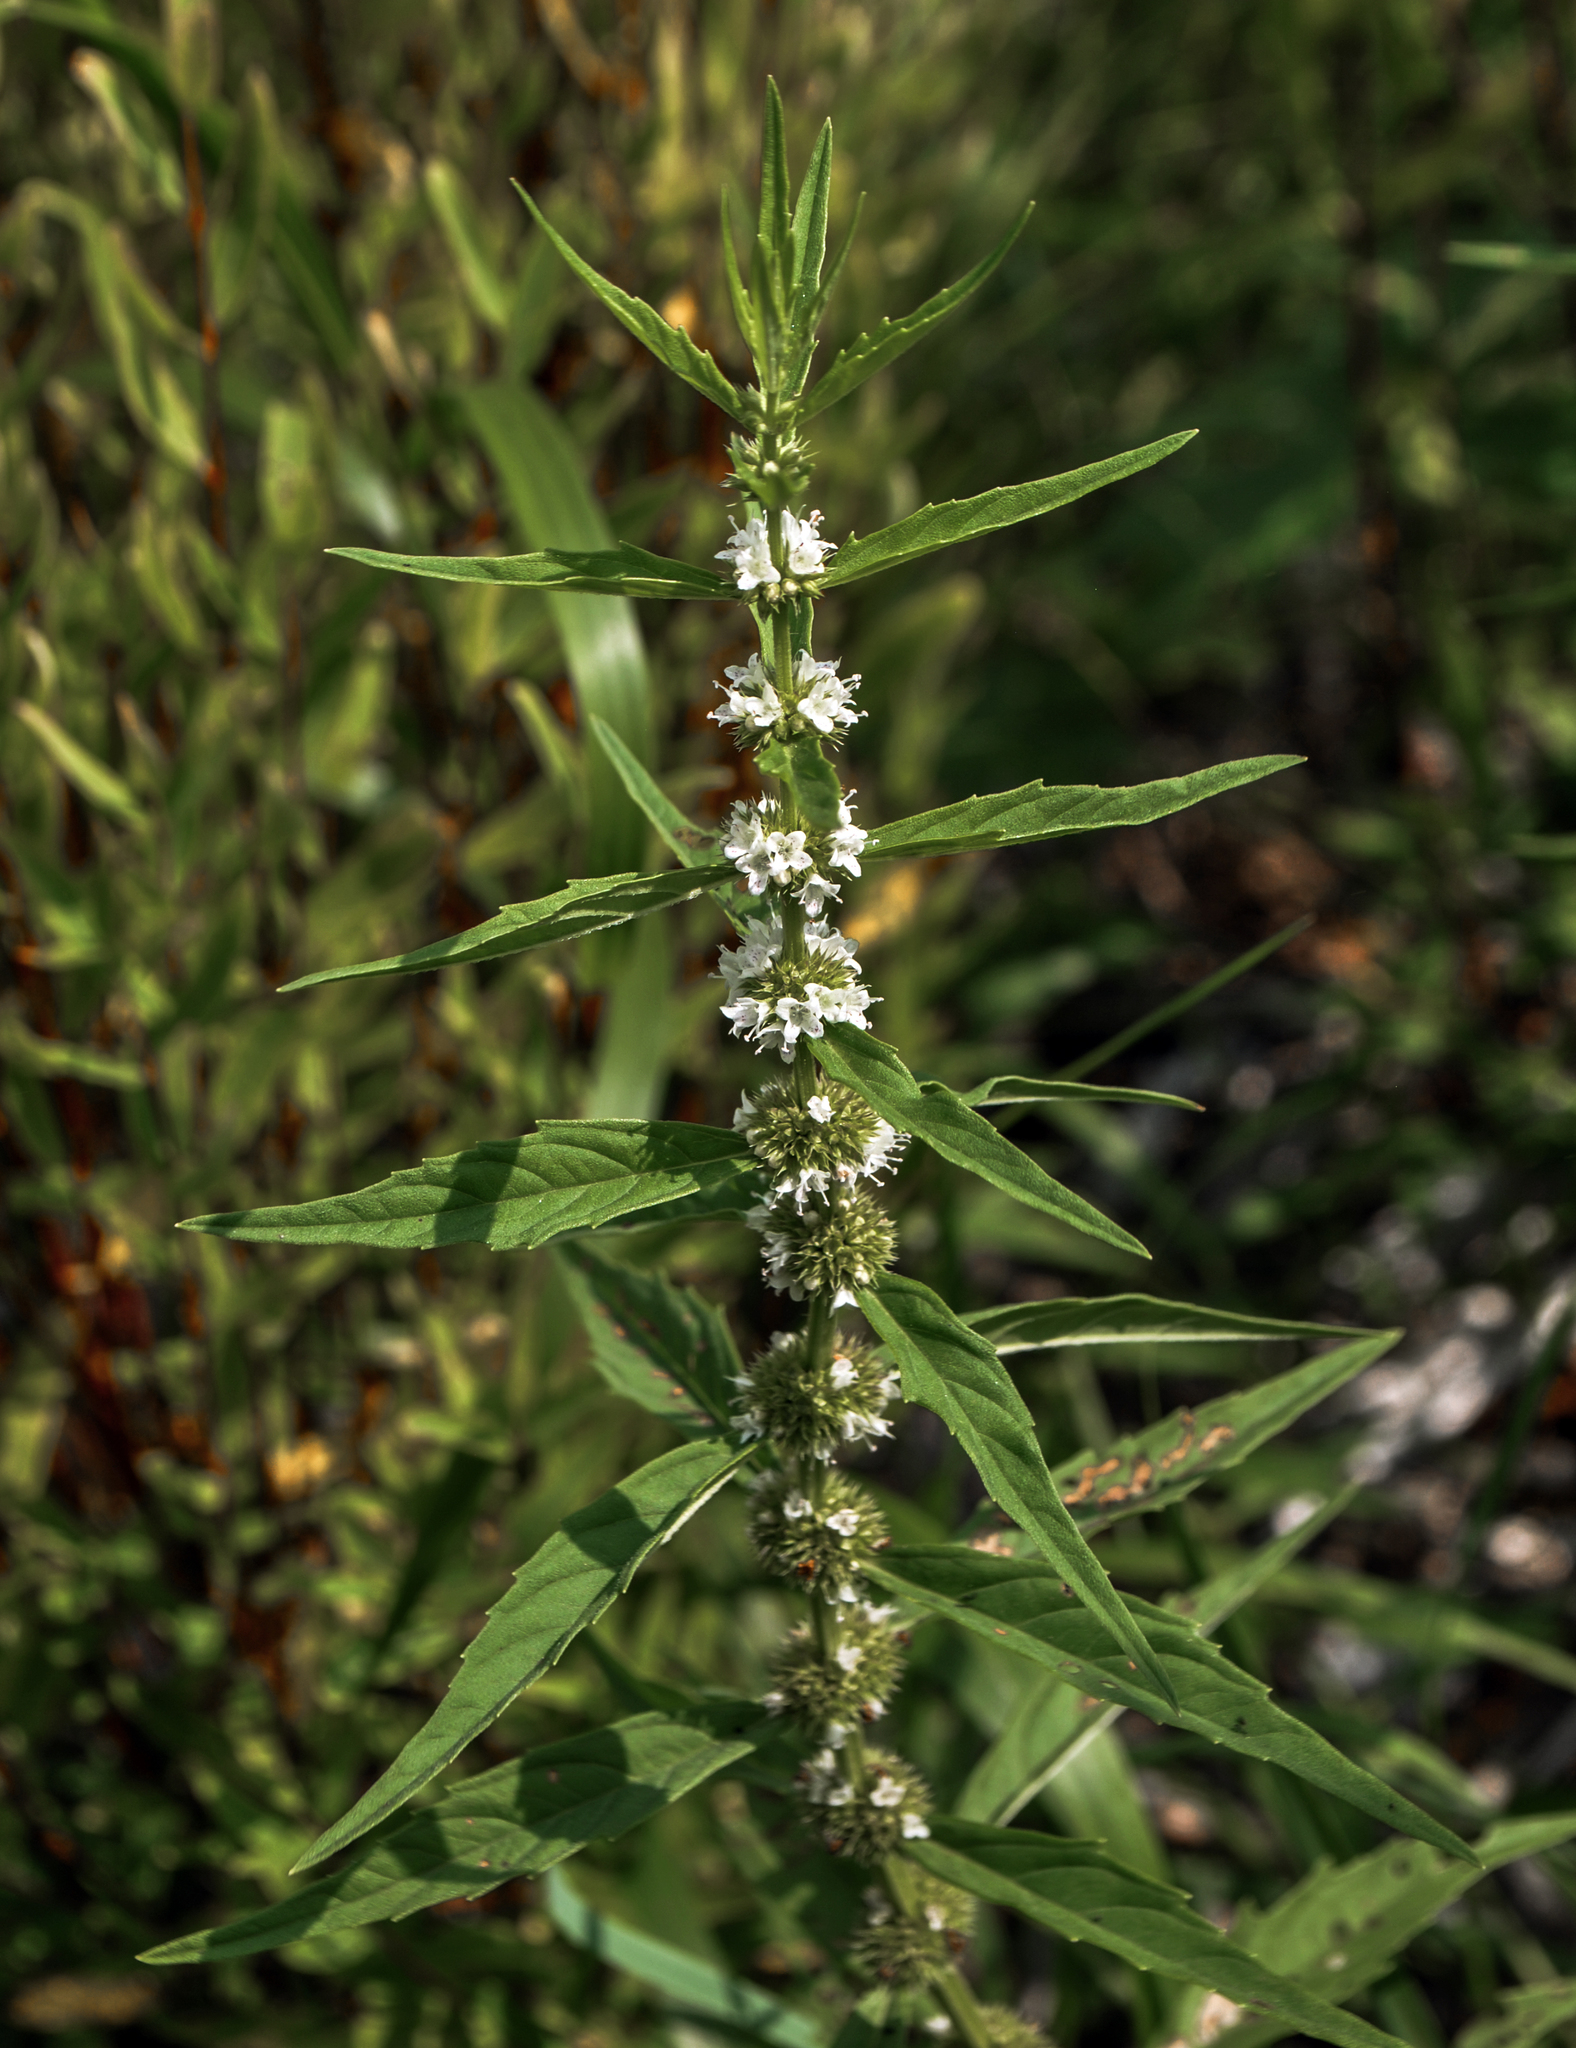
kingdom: Plantae
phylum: Tracheophyta
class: Magnoliopsida
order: Lamiales
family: Lamiaceae
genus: Lycopus
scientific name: Lycopus americanus
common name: American bugleweed
